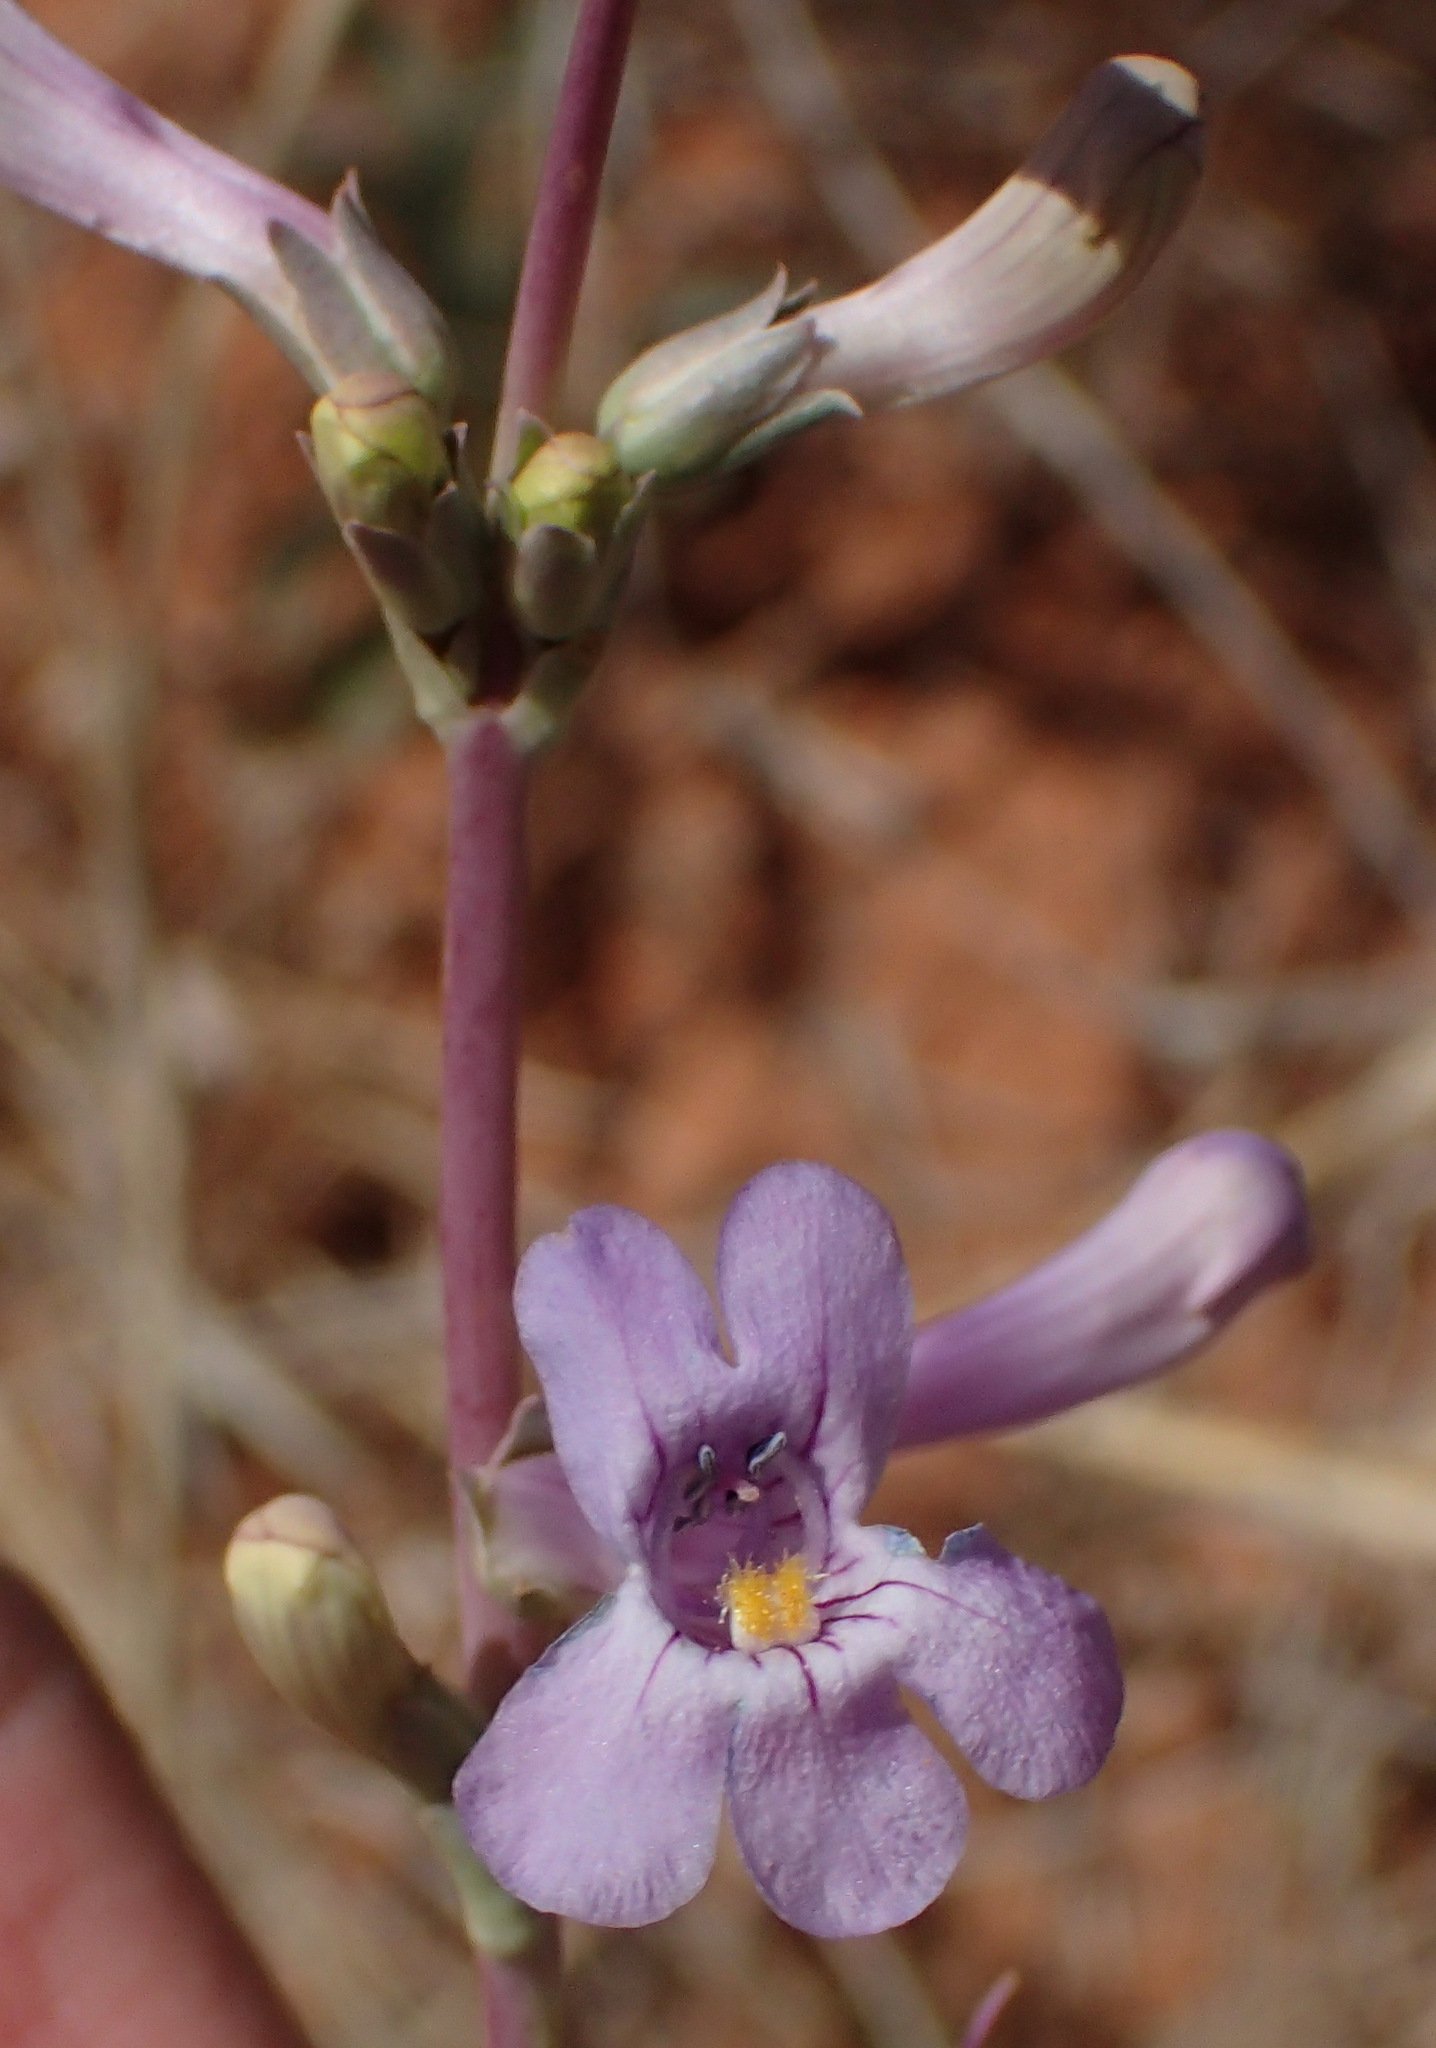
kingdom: Plantae
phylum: Tracheophyta
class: Magnoliopsida
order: Lamiales
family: Plantaginaceae
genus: Penstemon
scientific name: Penstemon fendleri
